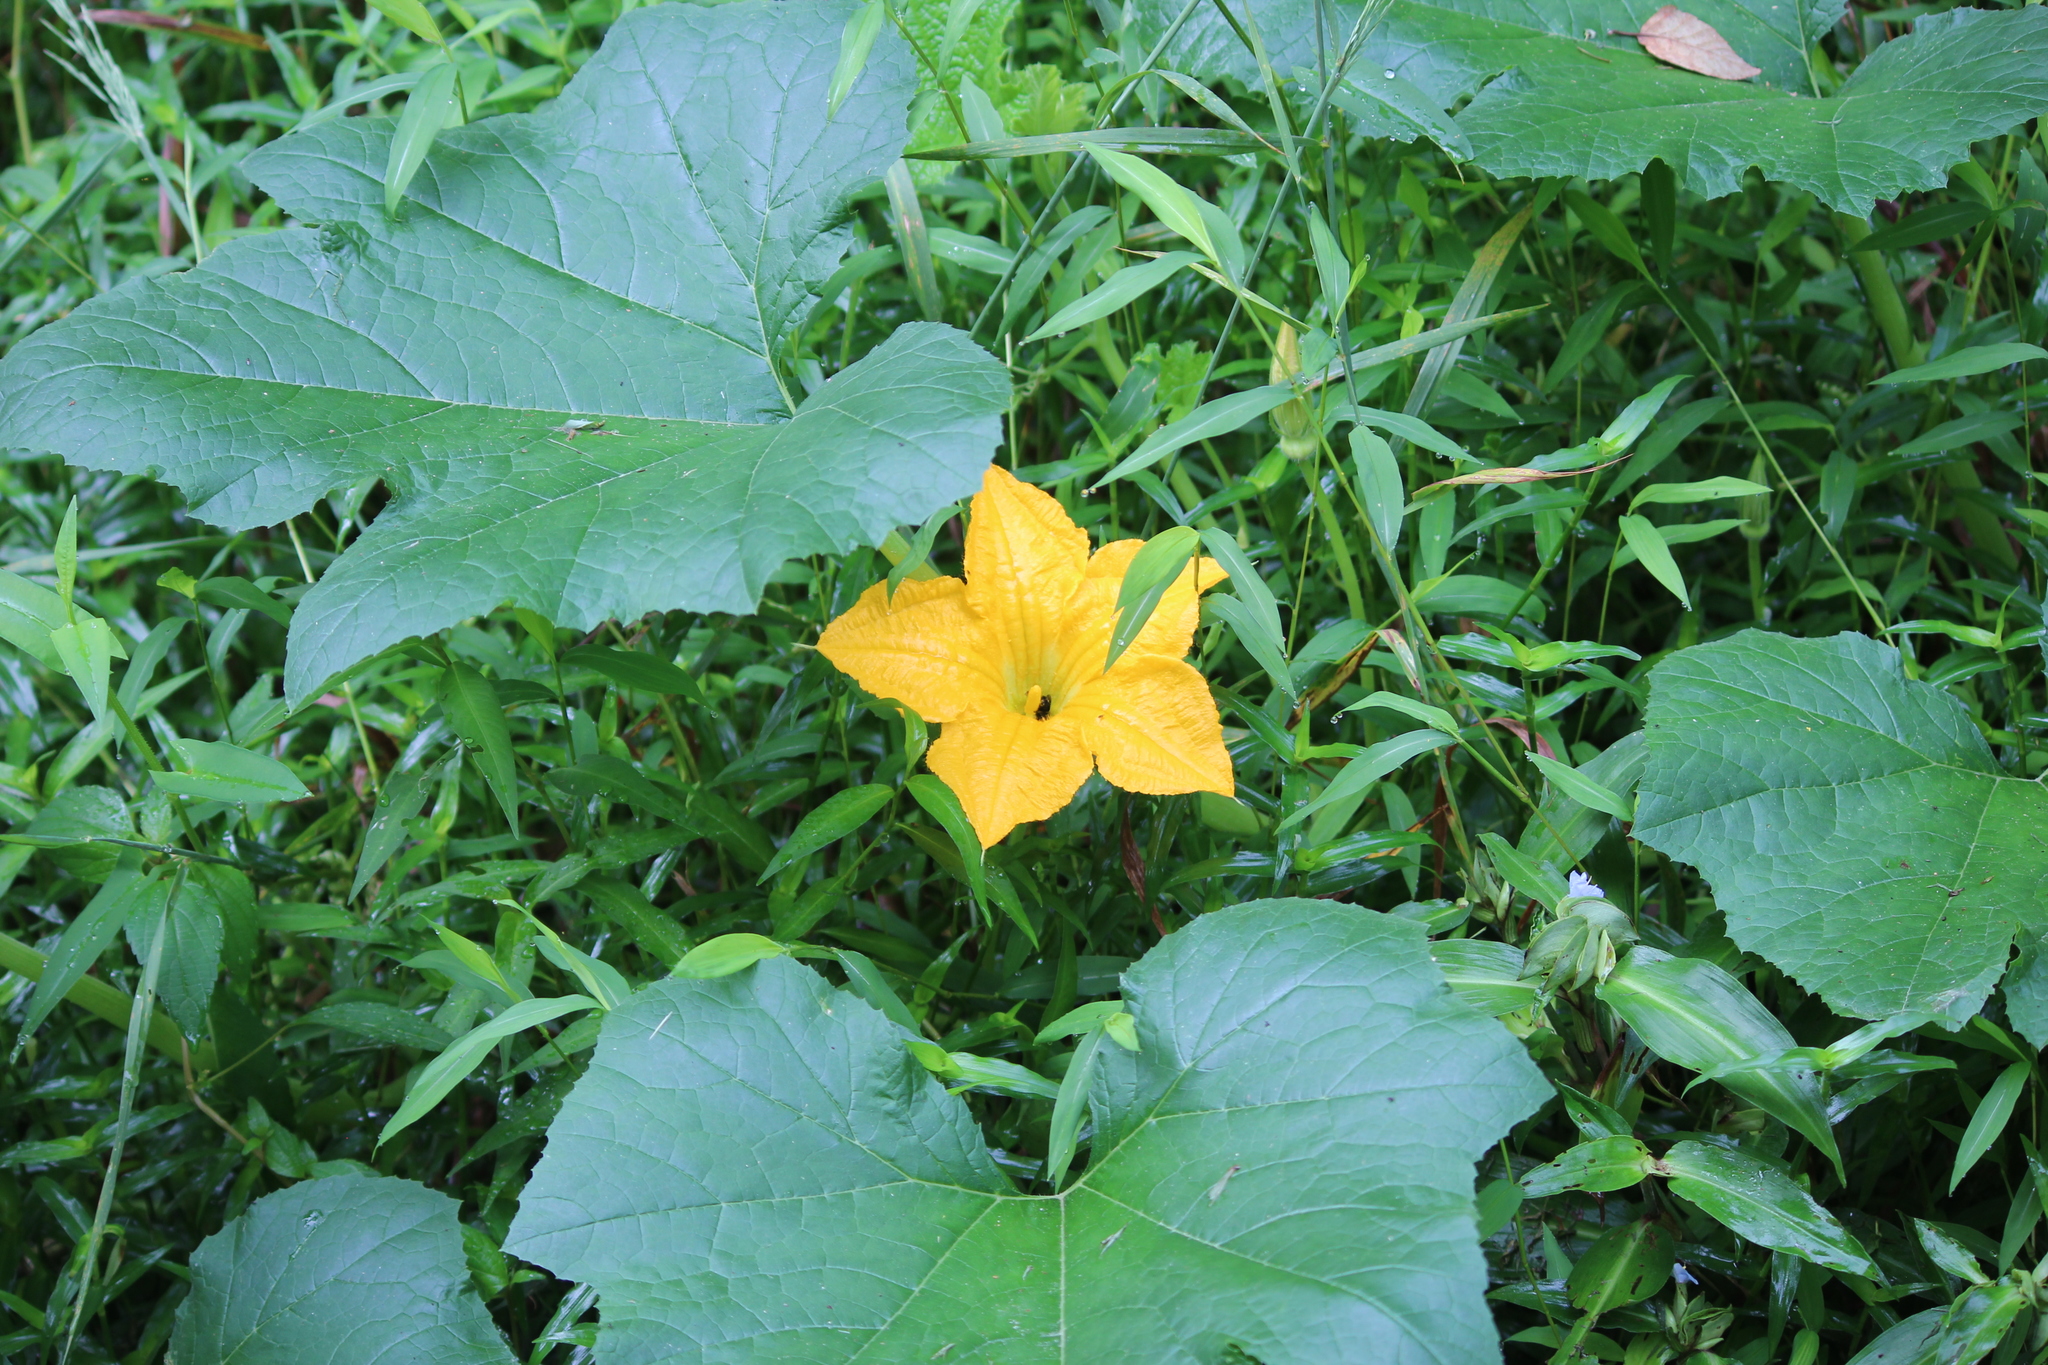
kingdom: Plantae
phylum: Tracheophyta
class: Magnoliopsida
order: Cucurbitales
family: Cucurbitaceae
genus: Cucurbita
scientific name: Cucurbita pepo
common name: Marrow
